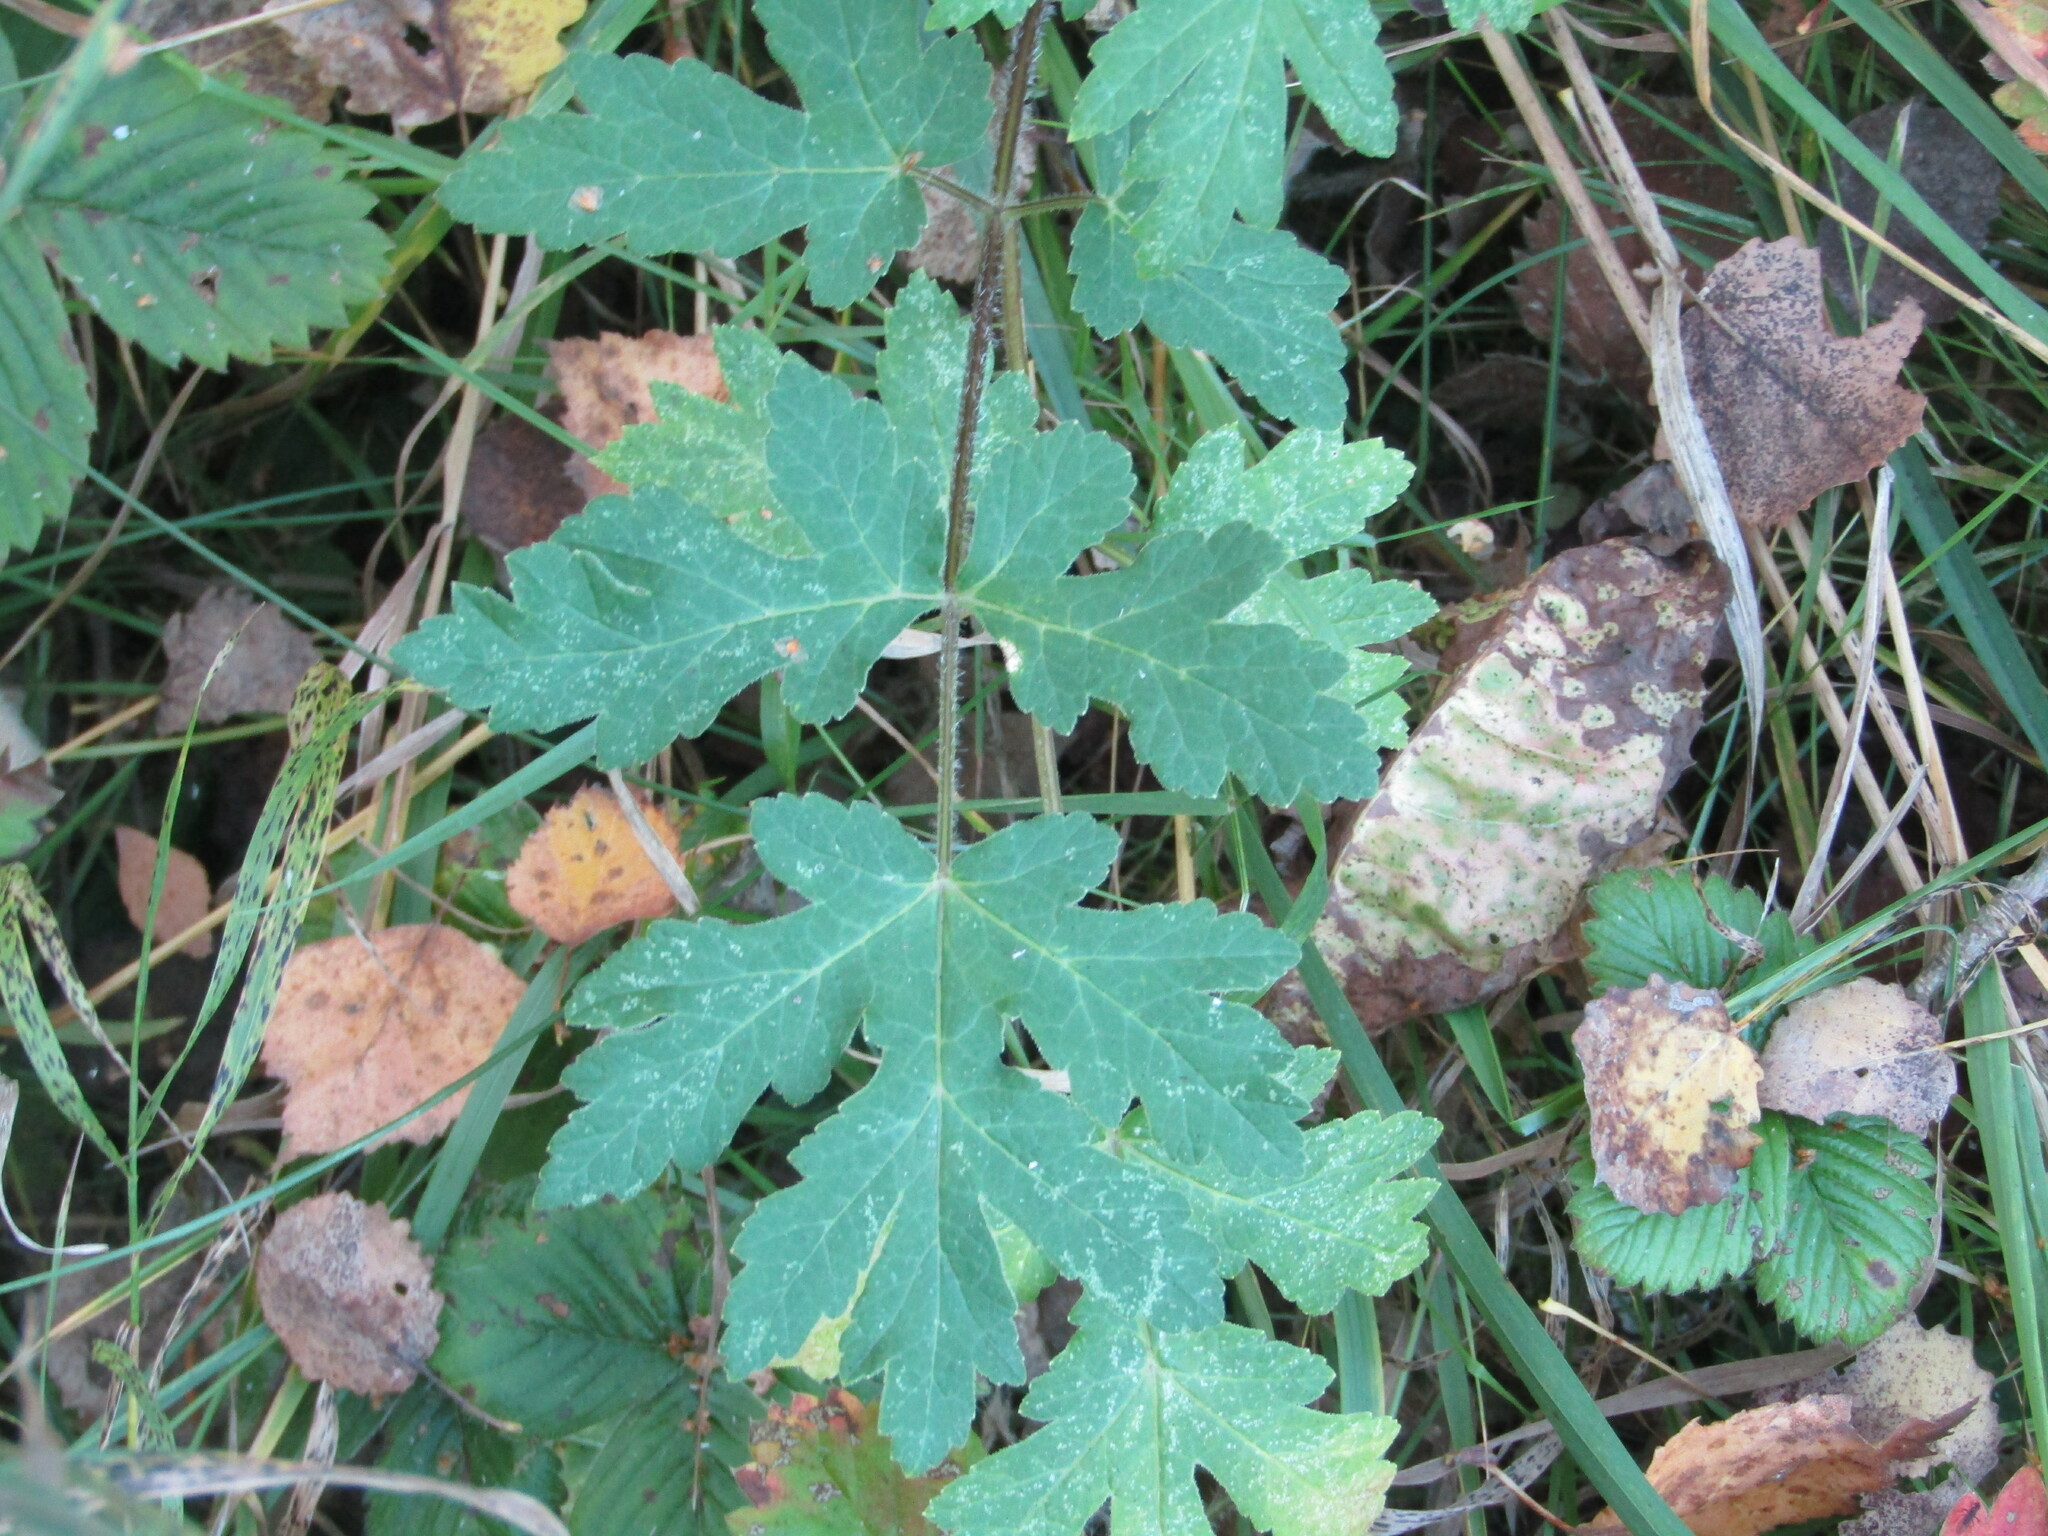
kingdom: Plantae
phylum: Tracheophyta
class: Magnoliopsida
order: Apiales
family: Apiaceae
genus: Heracleum
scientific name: Heracleum sphondylium
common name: Hogweed
